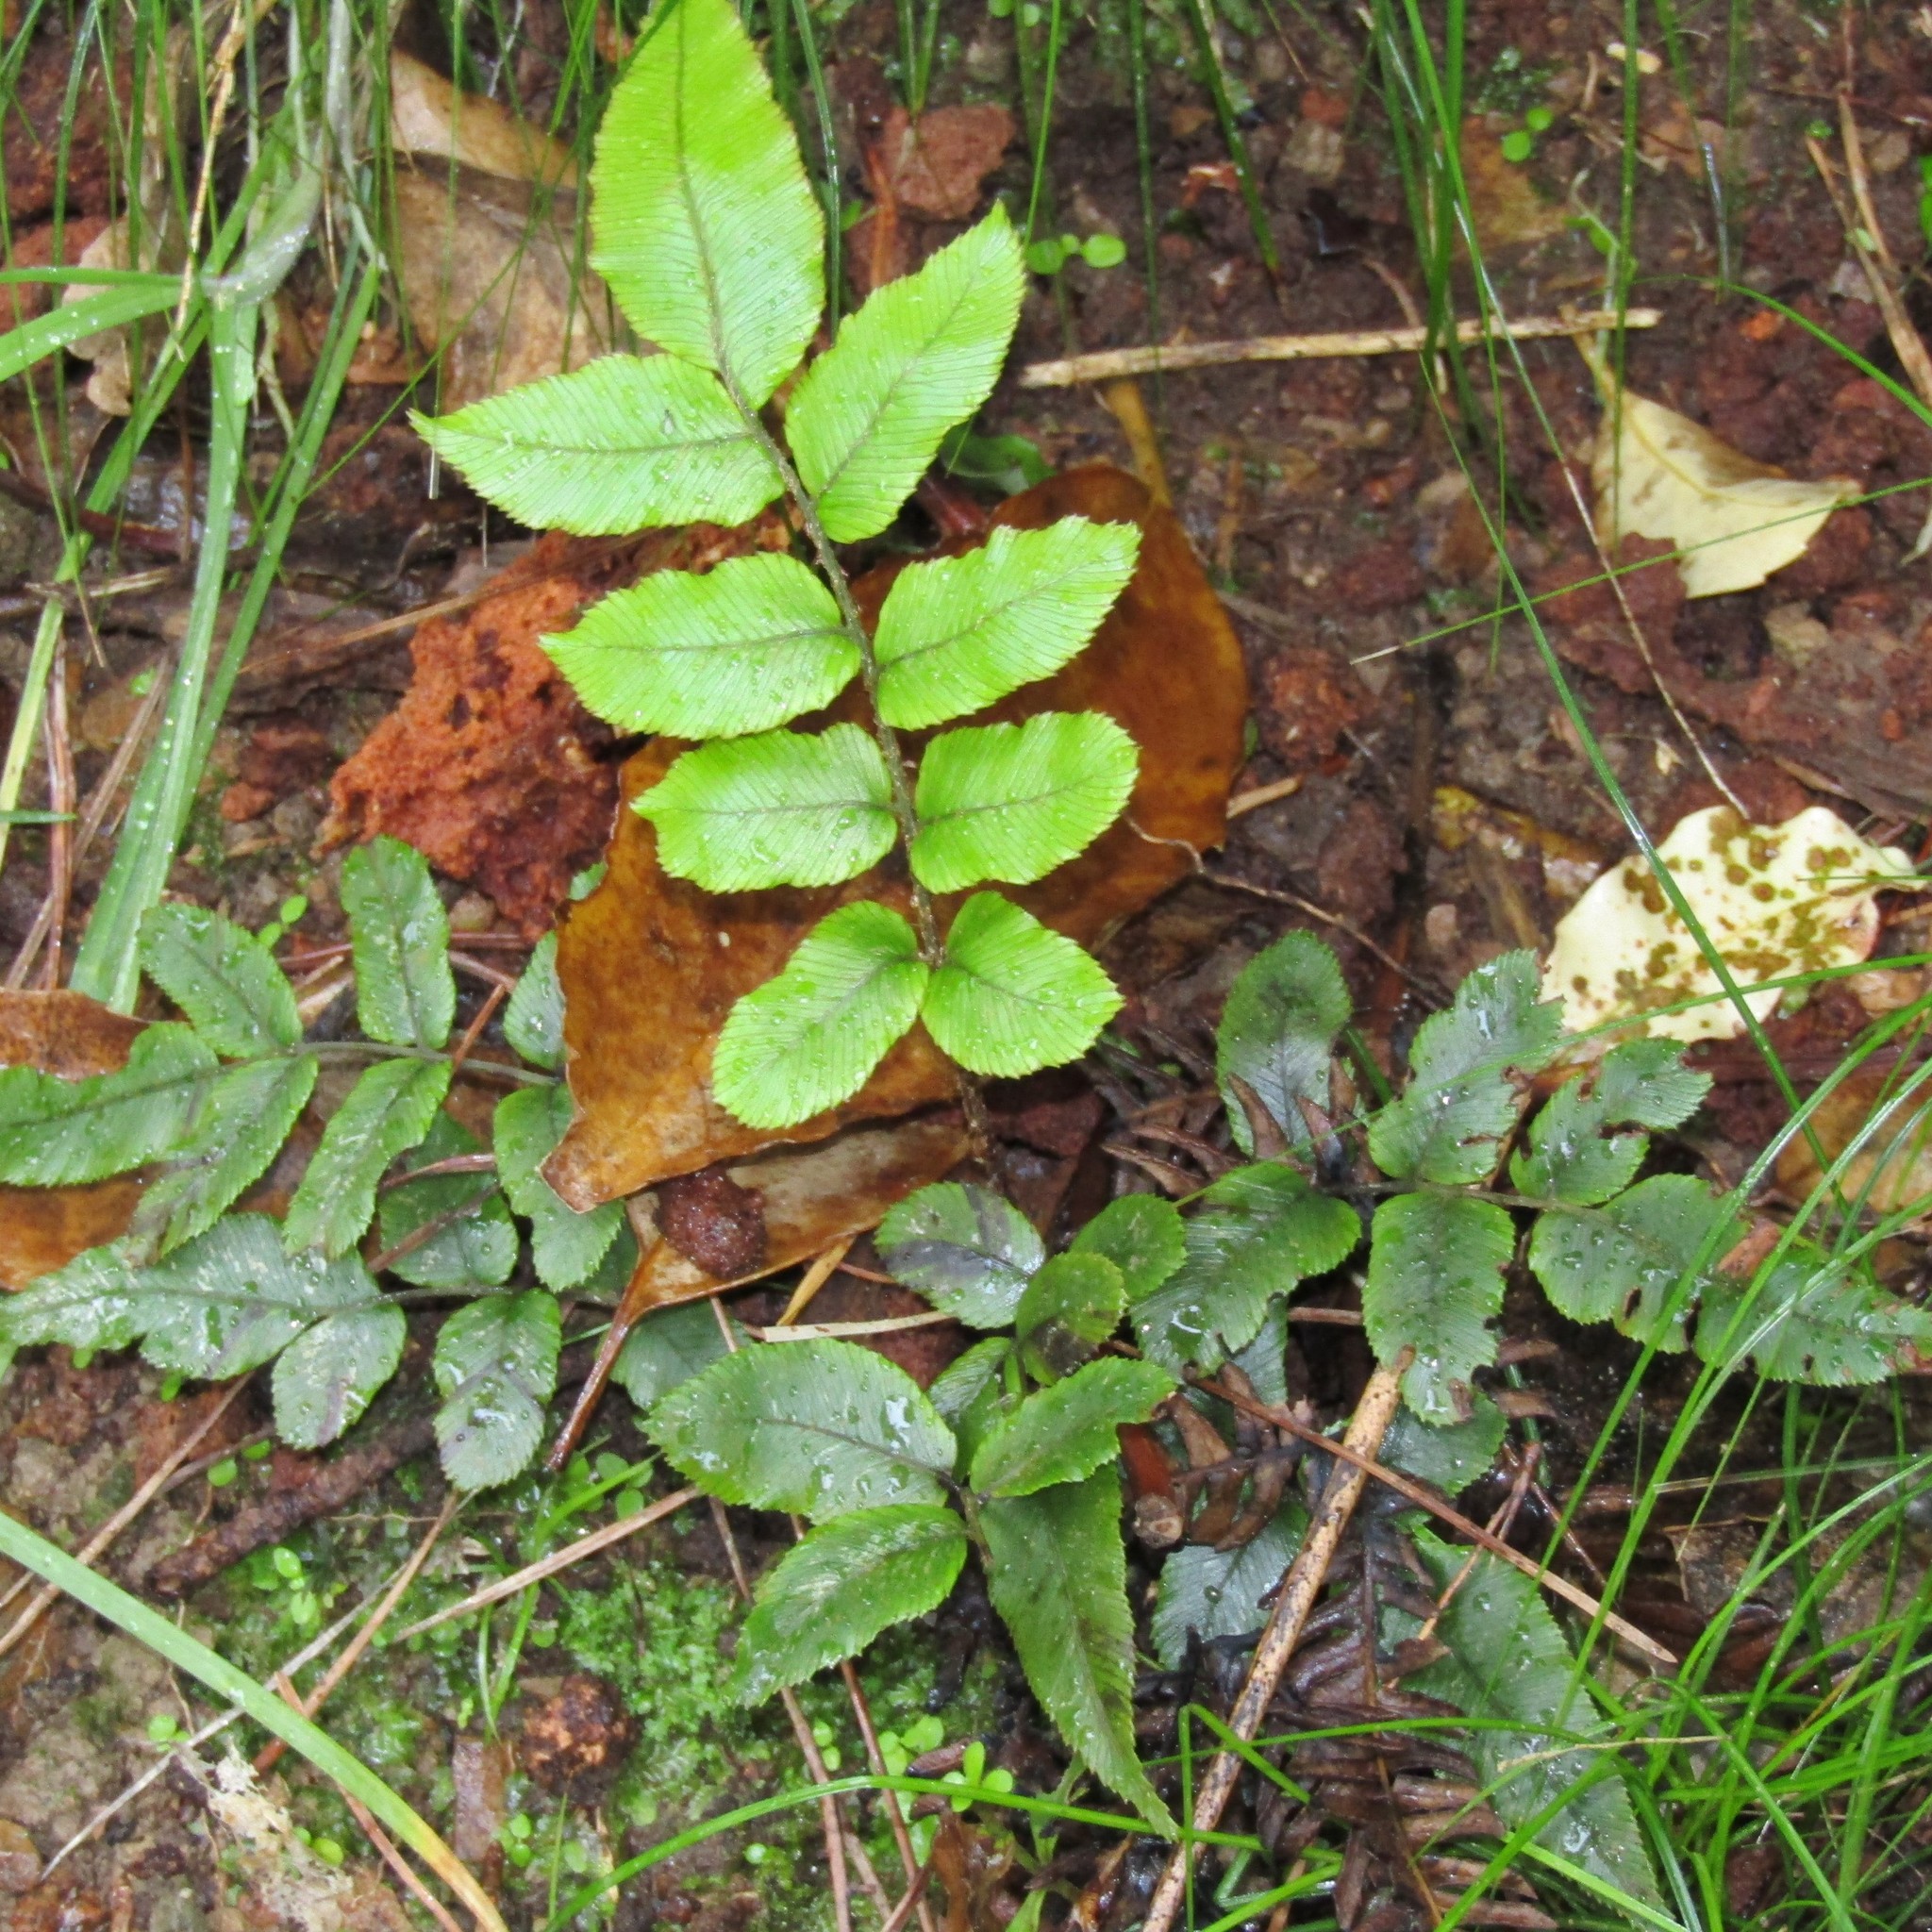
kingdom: Plantae
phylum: Tracheophyta
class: Polypodiopsida
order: Polypodiales
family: Blechnaceae
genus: Parablechnum
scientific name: Parablechnum procerum
